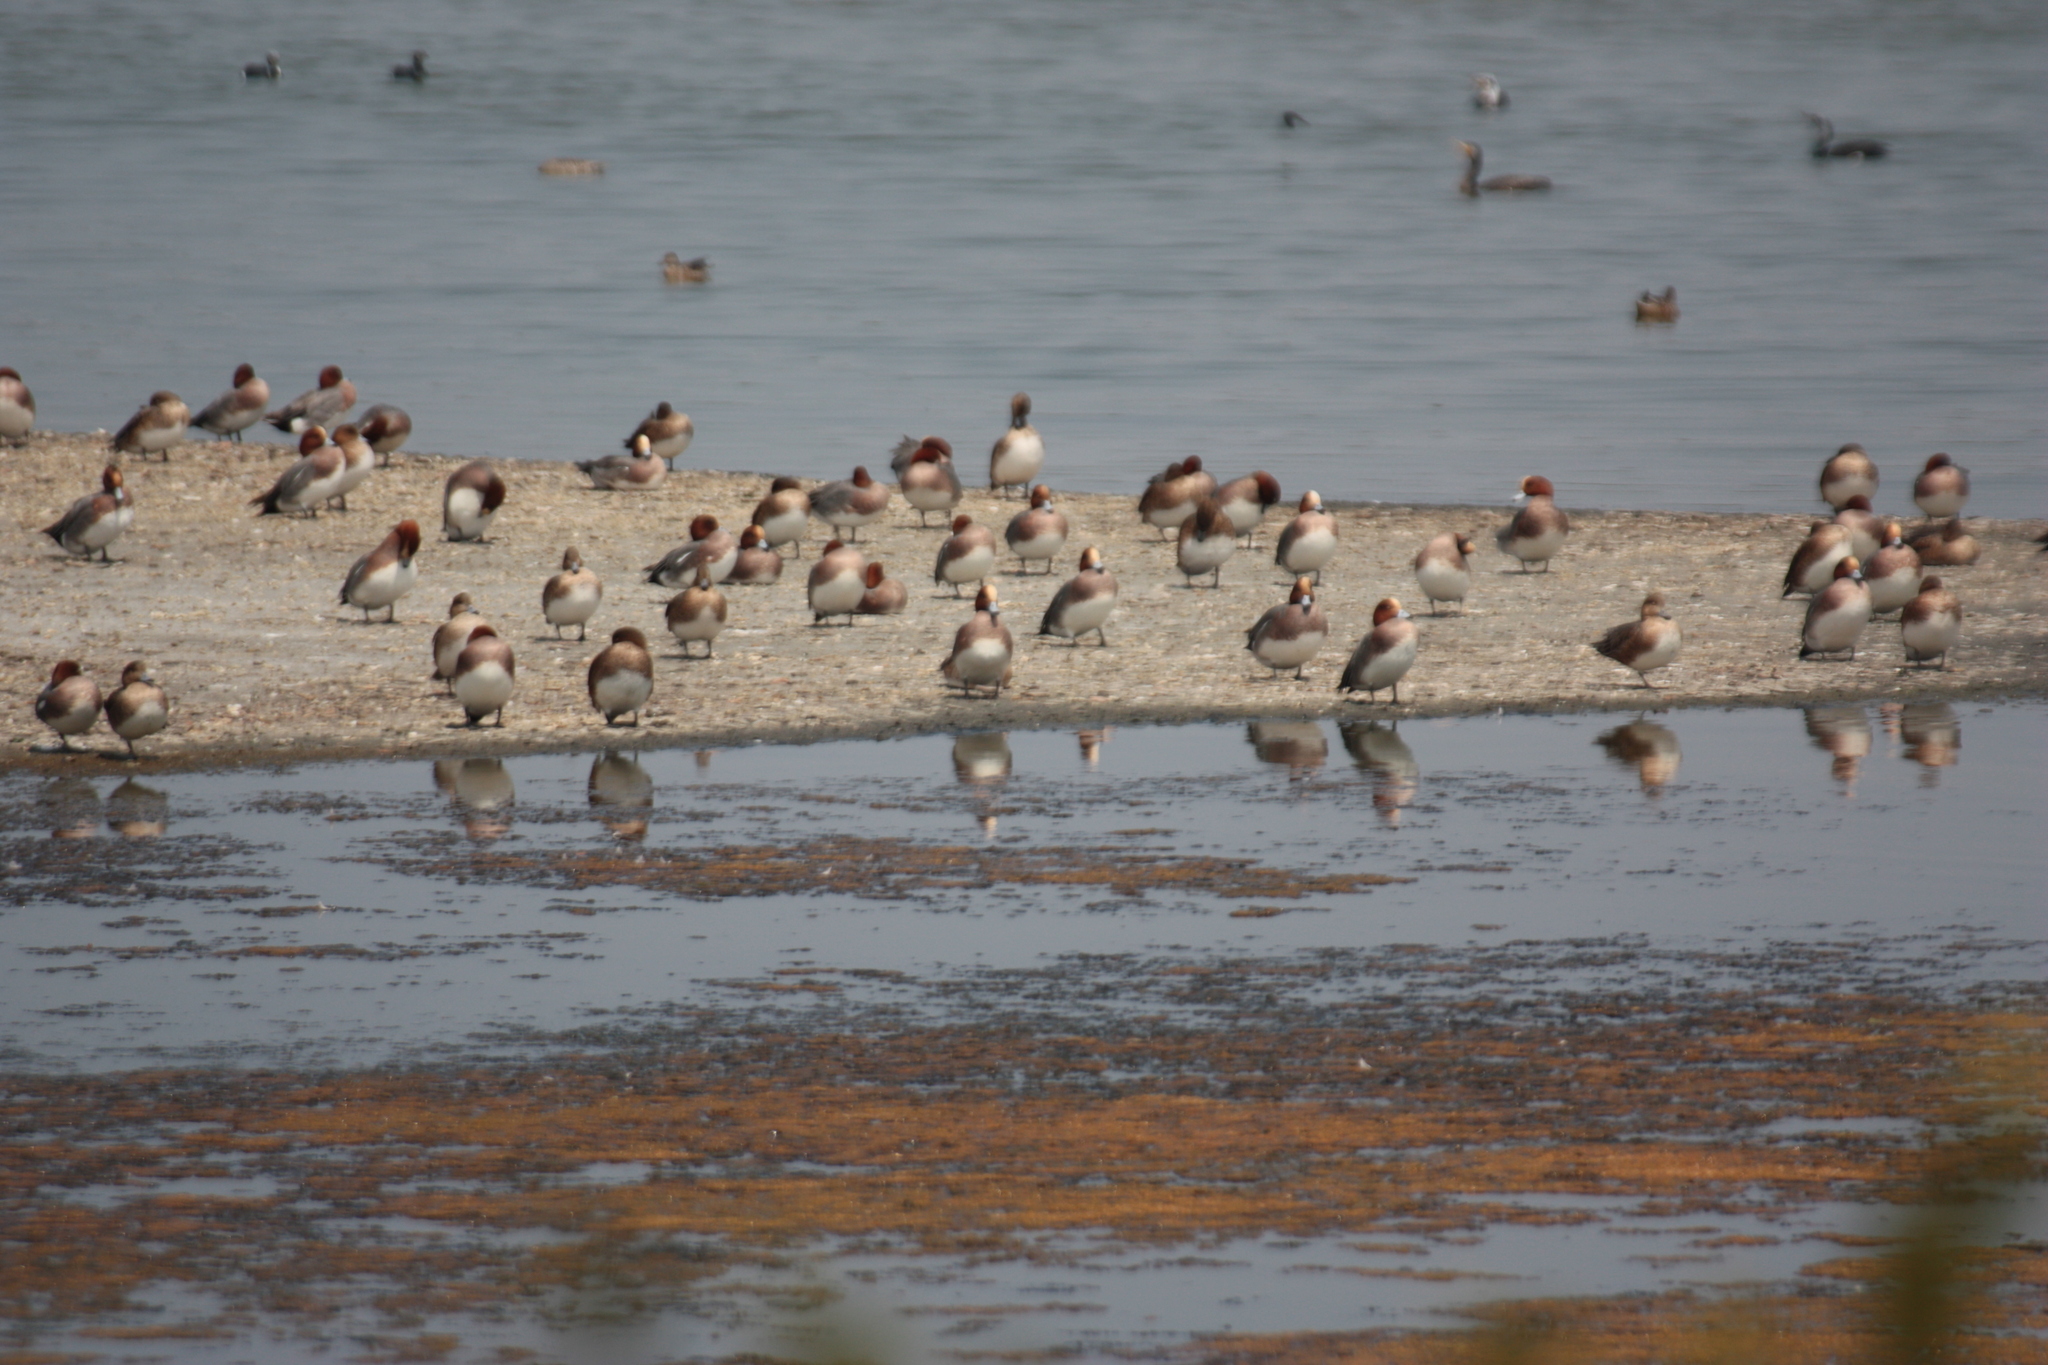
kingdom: Animalia
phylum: Chordata
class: Aves
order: Anseriformes
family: Anatidae
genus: Mareca
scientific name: Mareca penelope
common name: Eurasian wigeon
